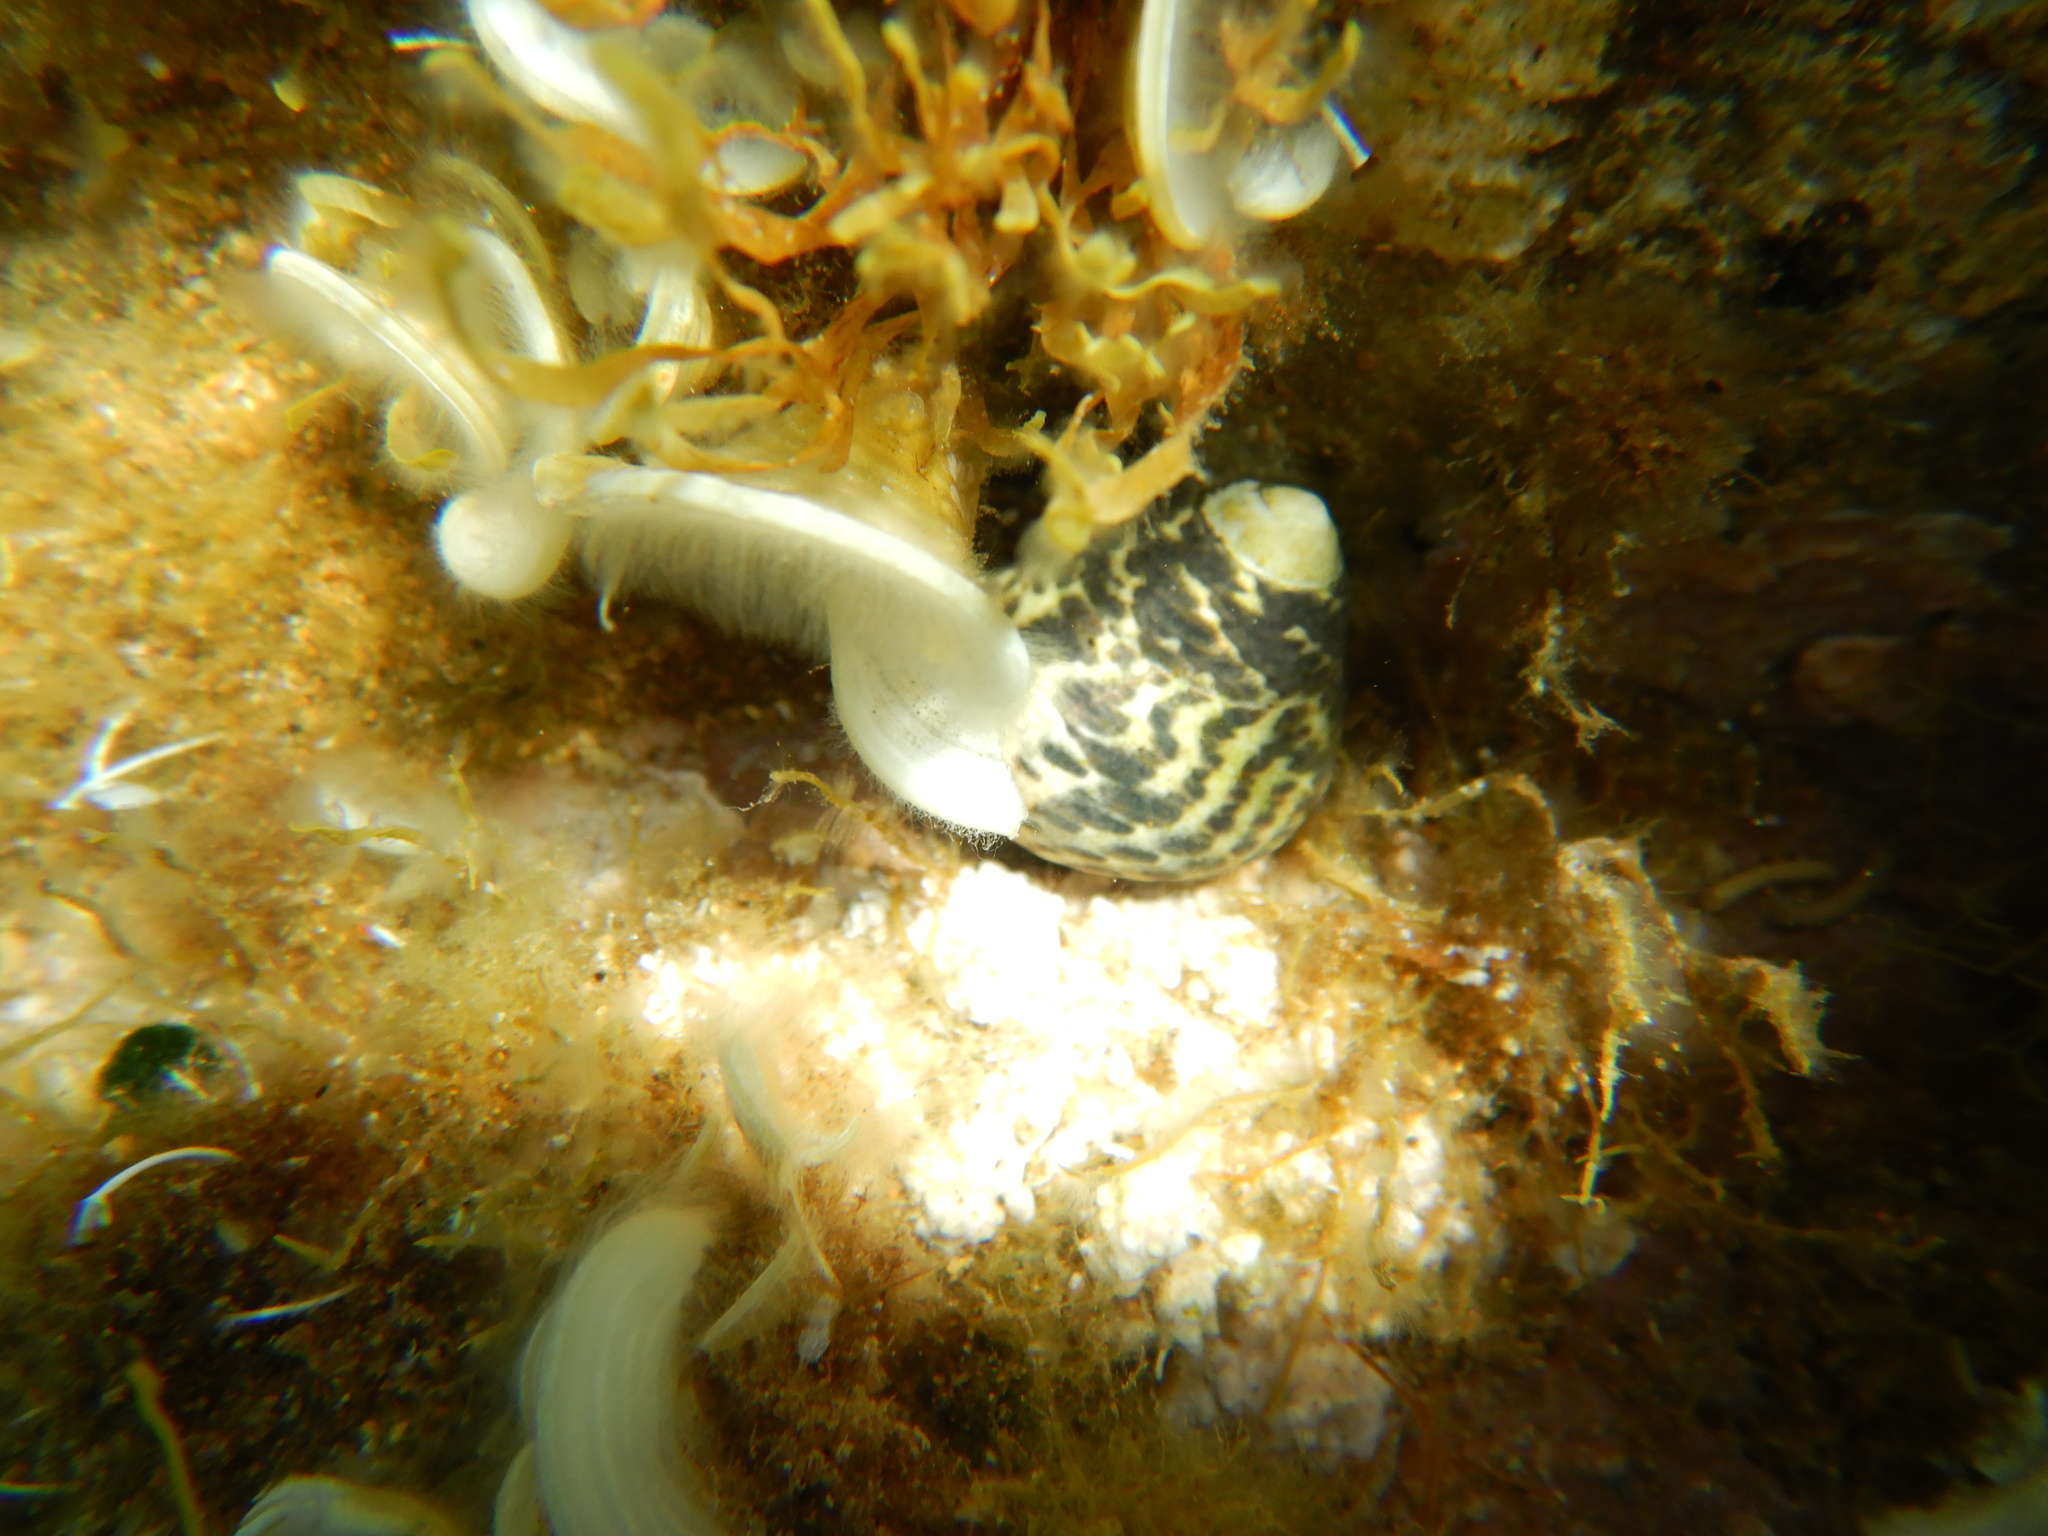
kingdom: Animalia
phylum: Mollusca
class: Gastropoda
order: Trochida
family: Trochidae
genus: Phorcus
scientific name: Phorcus turbinatus
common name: Turbinate monodont
